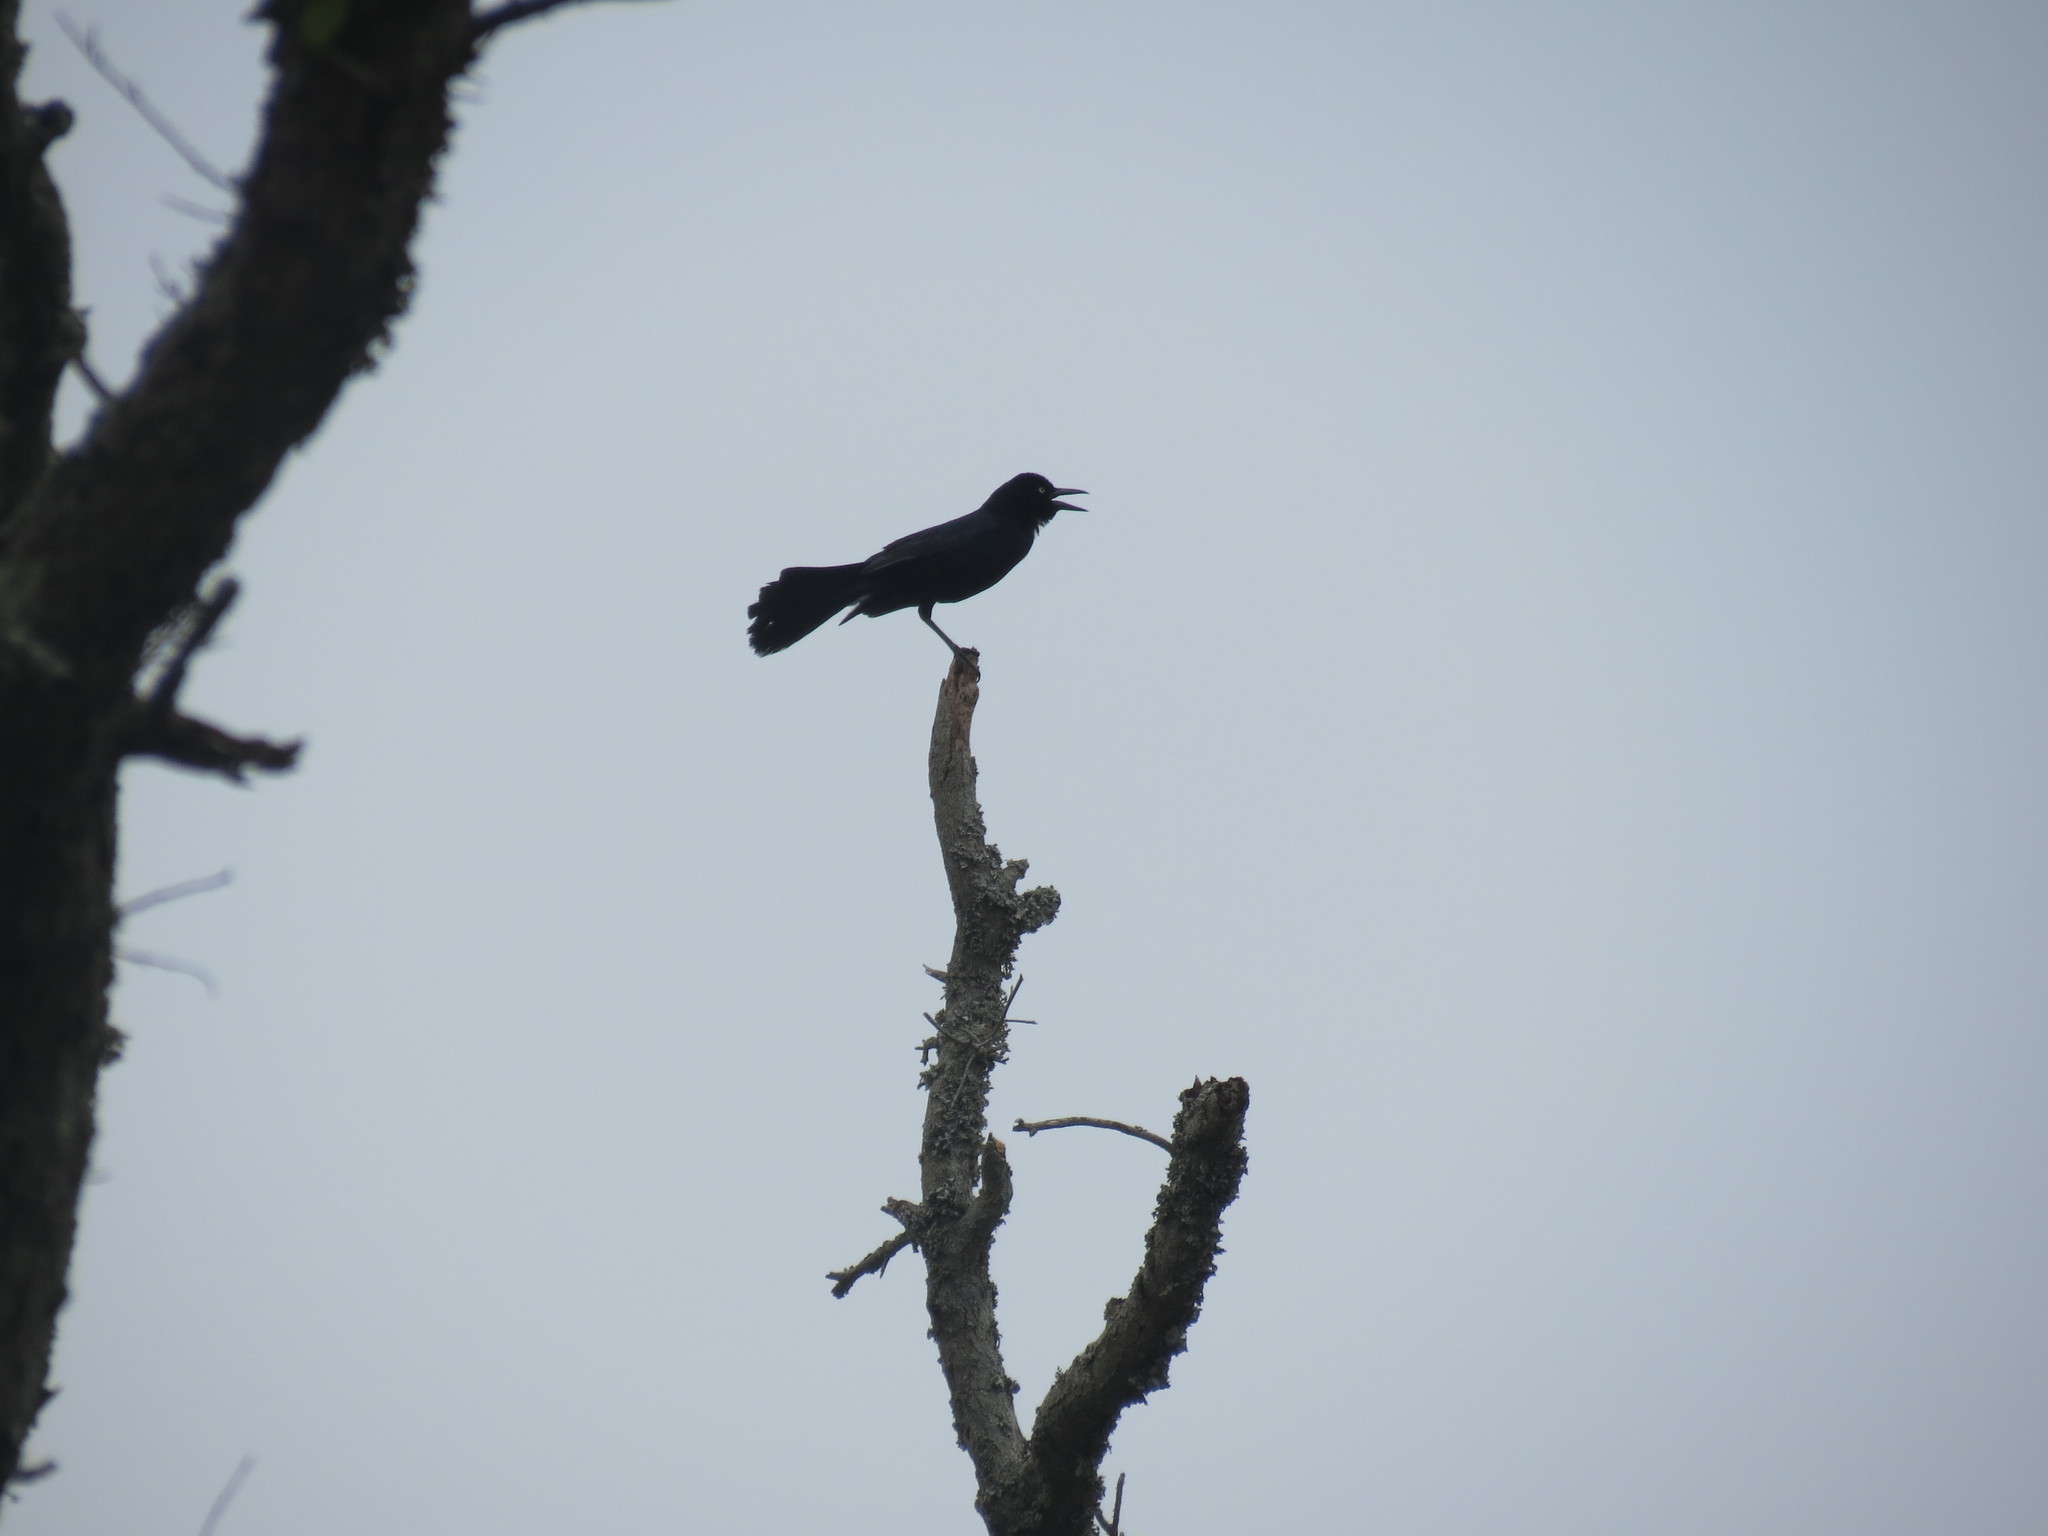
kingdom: Animalia
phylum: Chordata
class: Aves
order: Passeriformes
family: Icteridae
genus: Quiscalus
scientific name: Quiscalus major
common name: Boat-tailed grackle
